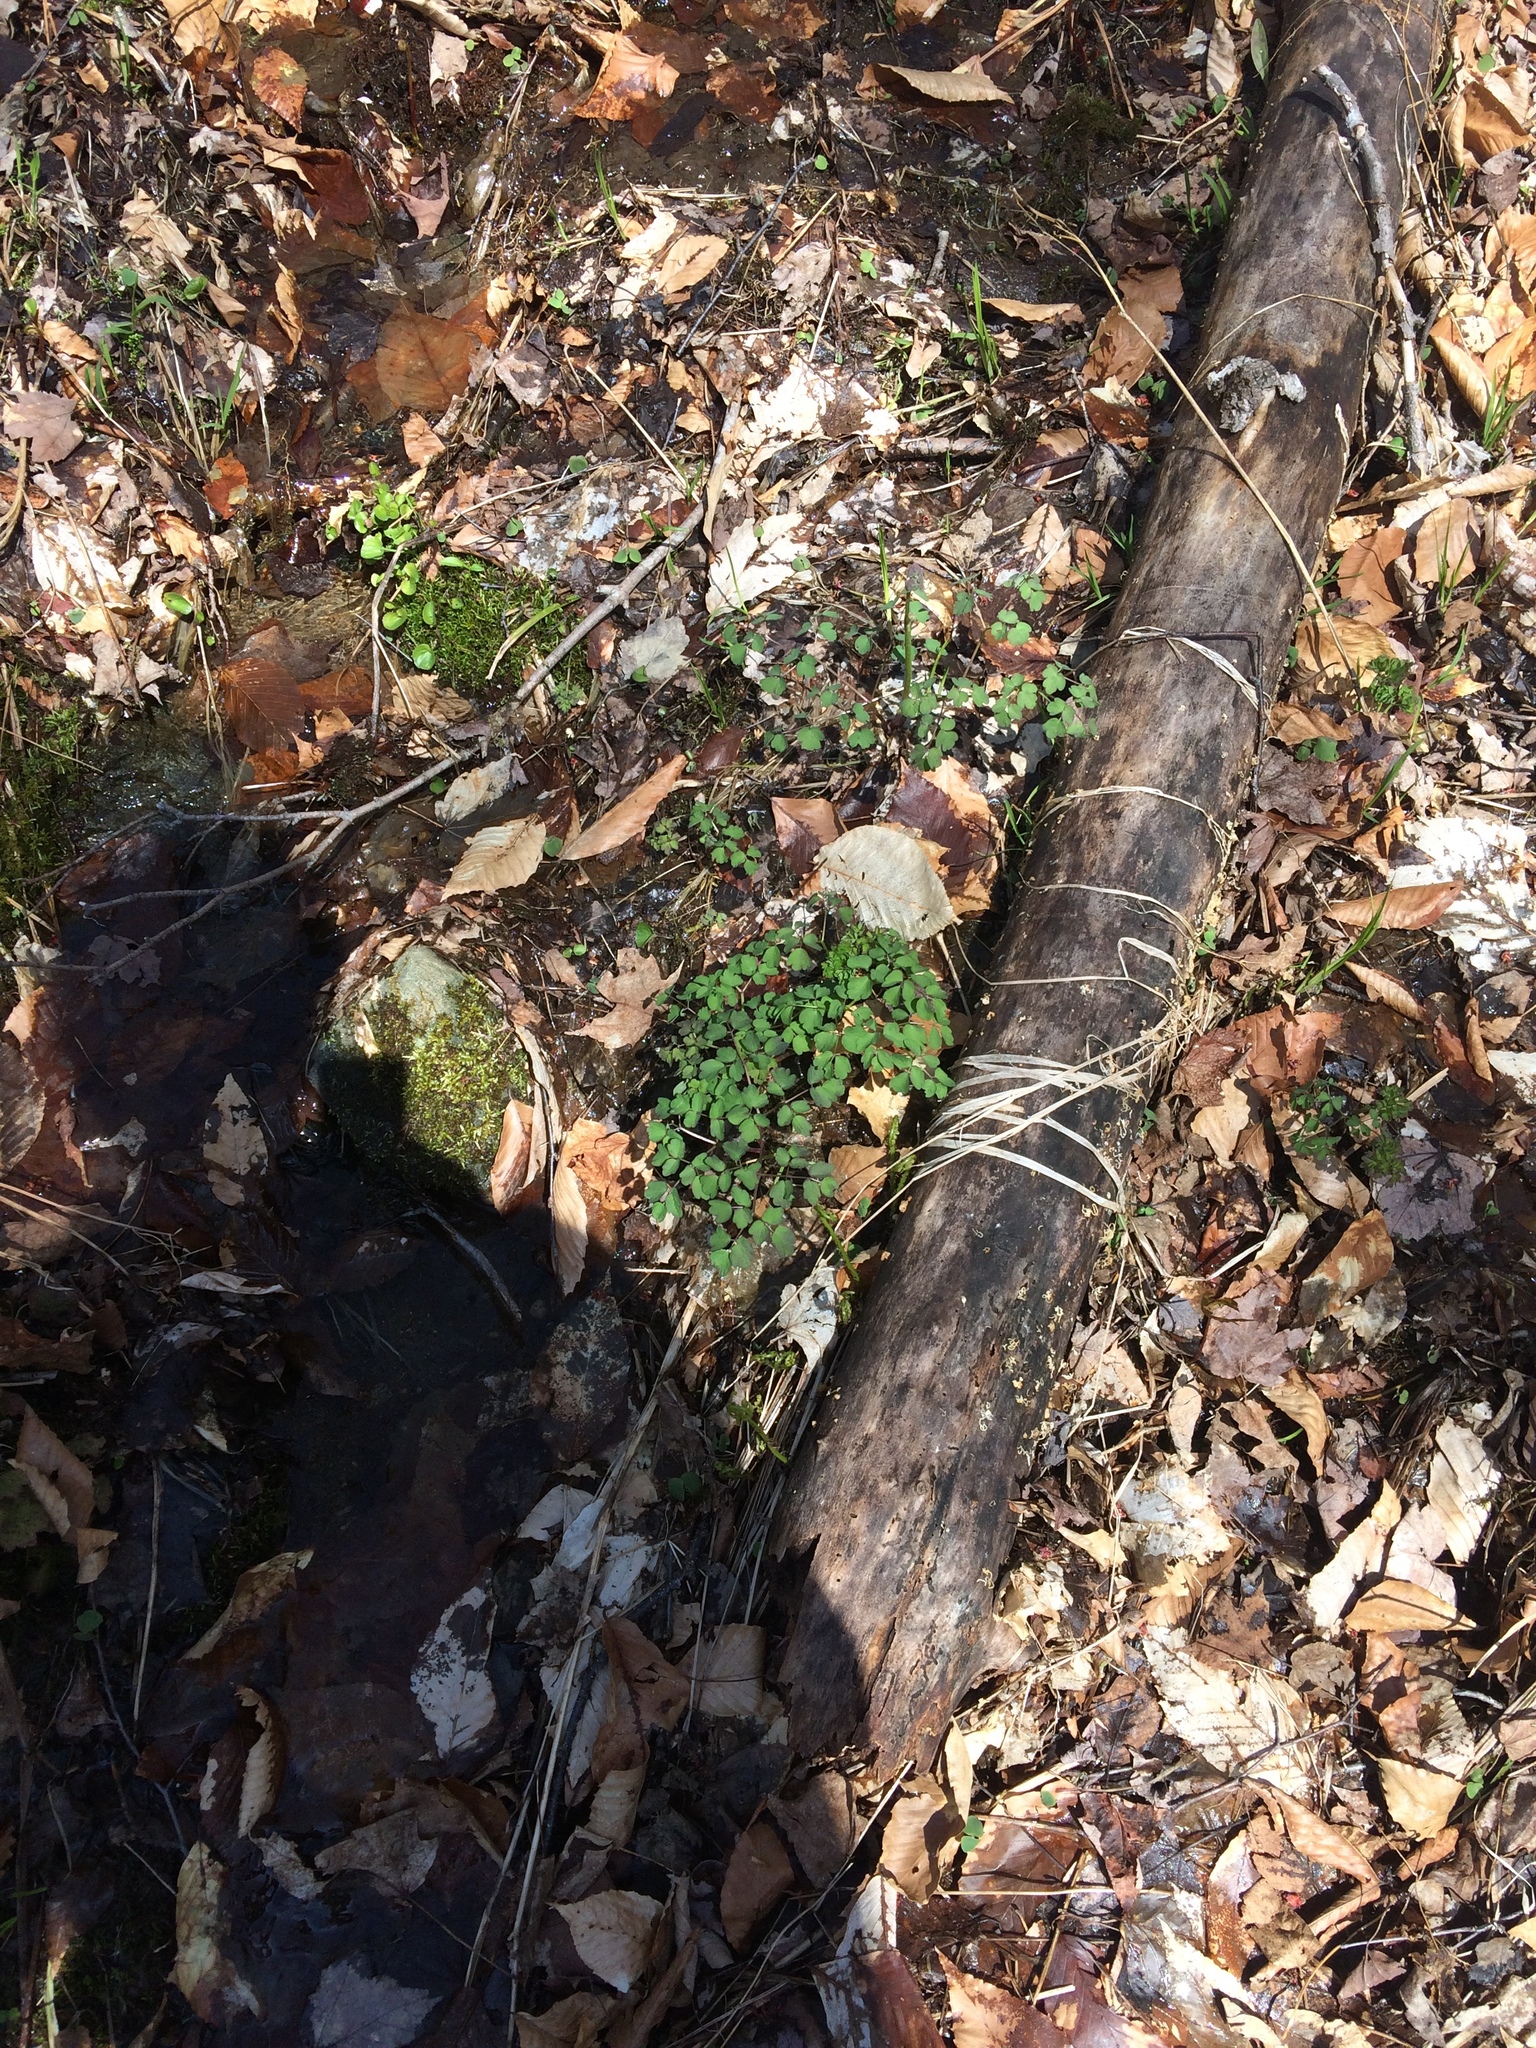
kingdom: Plantae
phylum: Tracheophyta
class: Magnoliopsida
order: Ranunculales
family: Ranunculaceae
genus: Thalictrum
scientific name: Thalictrum pubescens
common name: King-of-the-meadow
